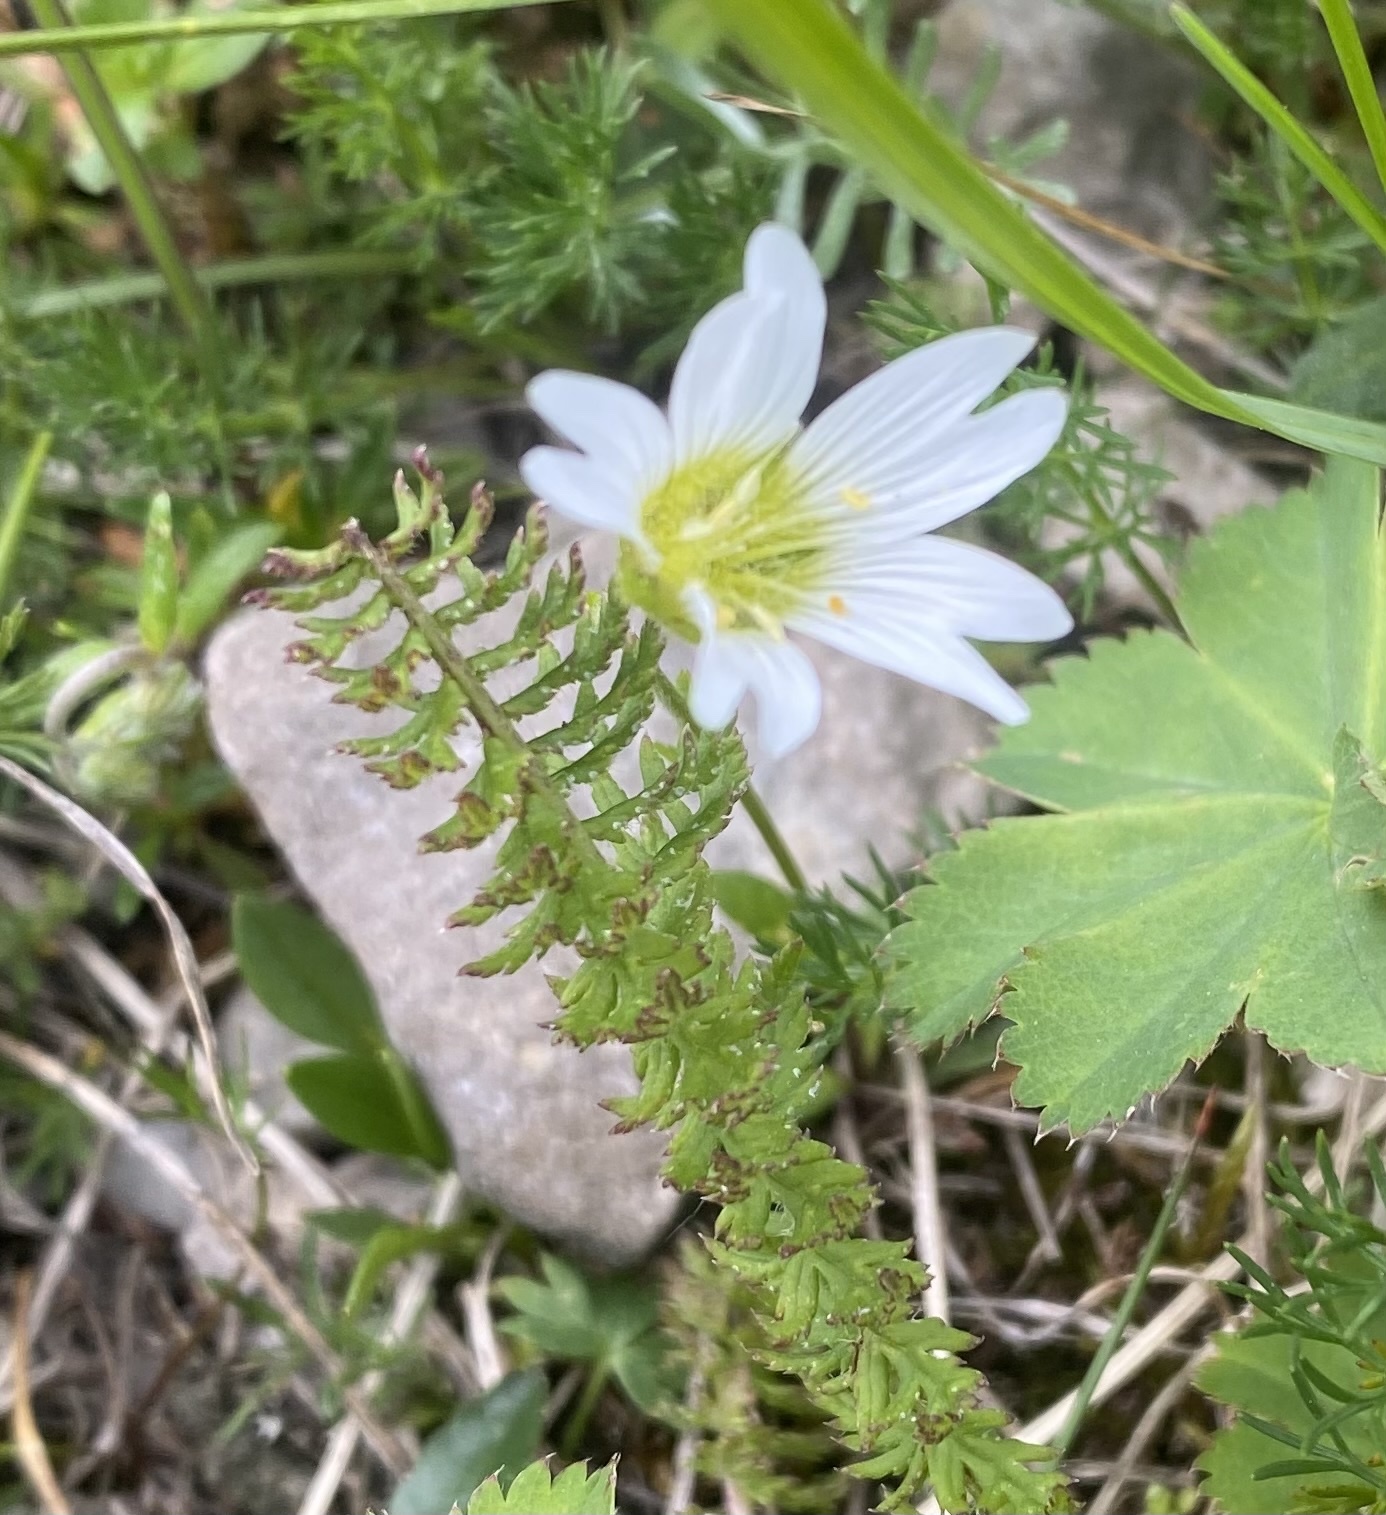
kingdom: Plantae
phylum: Tracheophyta
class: Magnoliopsida
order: Caryophyllales
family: Caryophyllaceae
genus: Dichodon
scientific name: Dichodon cerastoides
